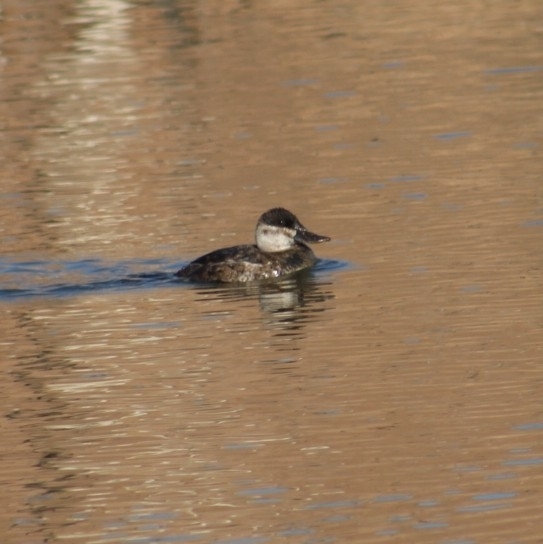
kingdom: Animalia
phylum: Chordata
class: Aves
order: Anseriformes
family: Anatidae
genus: Oxyura
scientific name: Oxyura jamaicensis
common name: Ruddy duck
